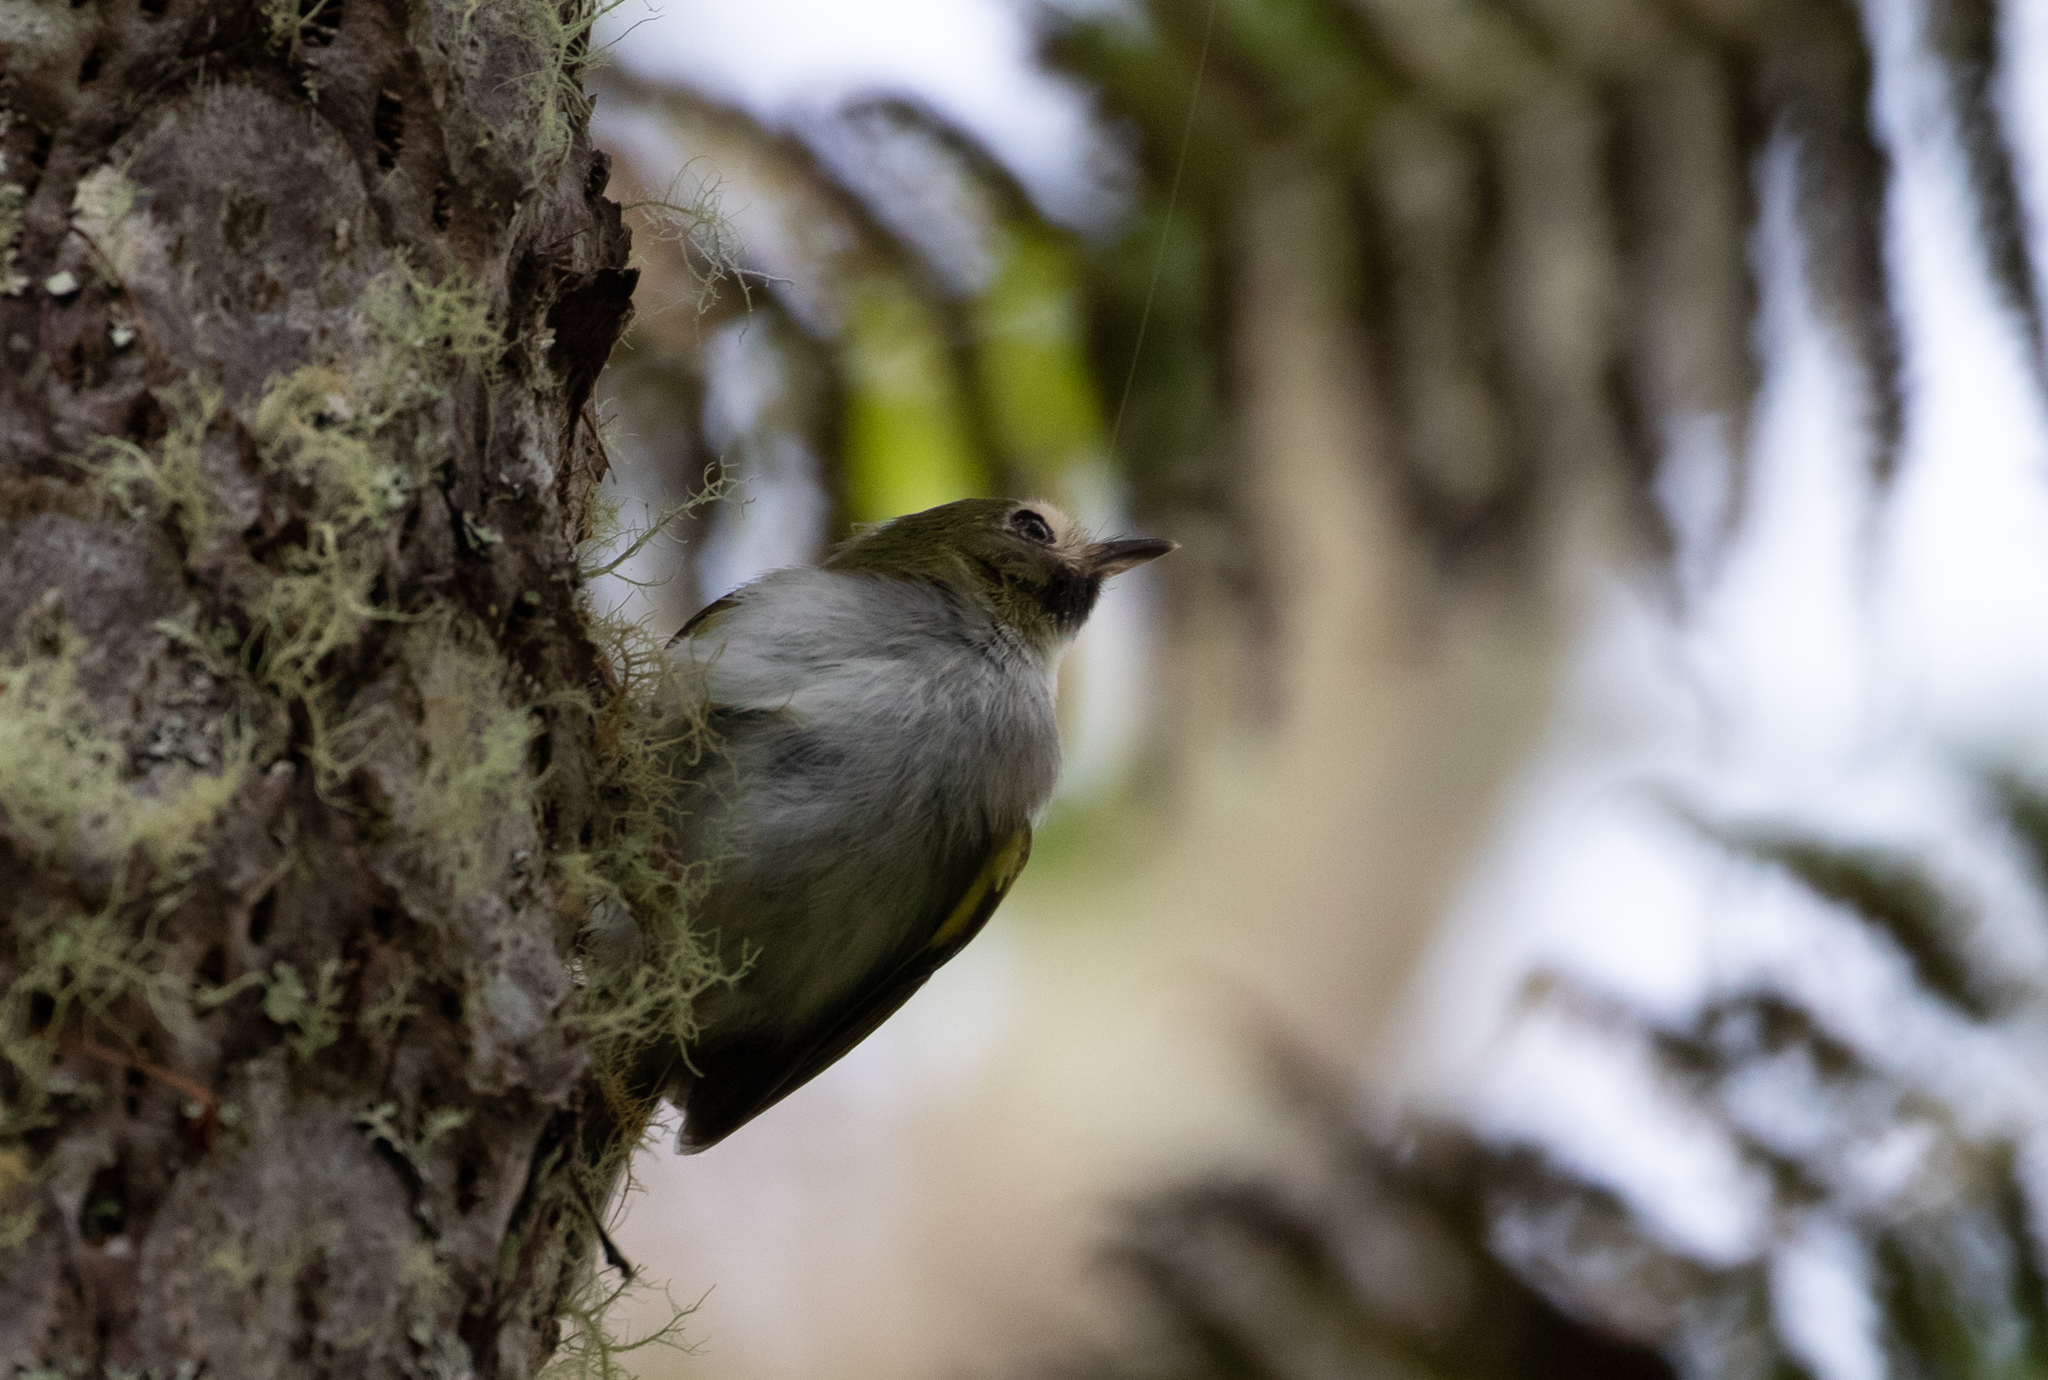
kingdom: Animalia
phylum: Chordata
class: Aves
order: Passeriformes
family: Tyrannidae
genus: Hemitriccus
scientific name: Hemitriccus granadensis
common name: Black-throated tody-tyrant
